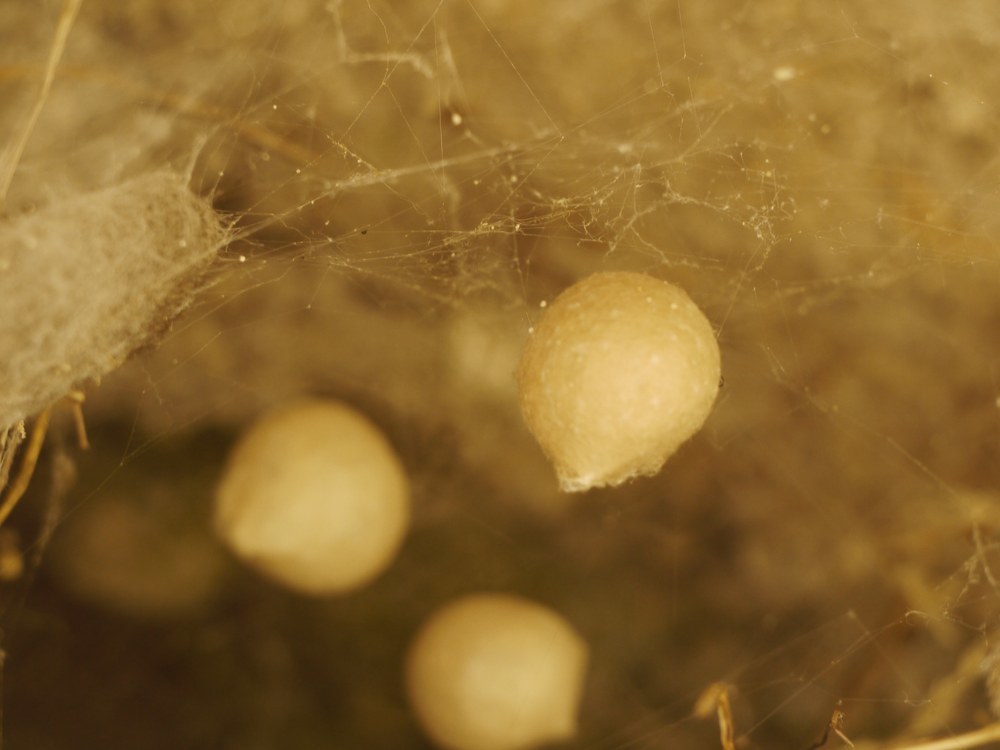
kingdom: Animalia
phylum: Arthropoda
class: Arachnida
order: Araneae
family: Theridiidae
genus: Latrodectus
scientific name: Latrodectus tredecimguttatus
